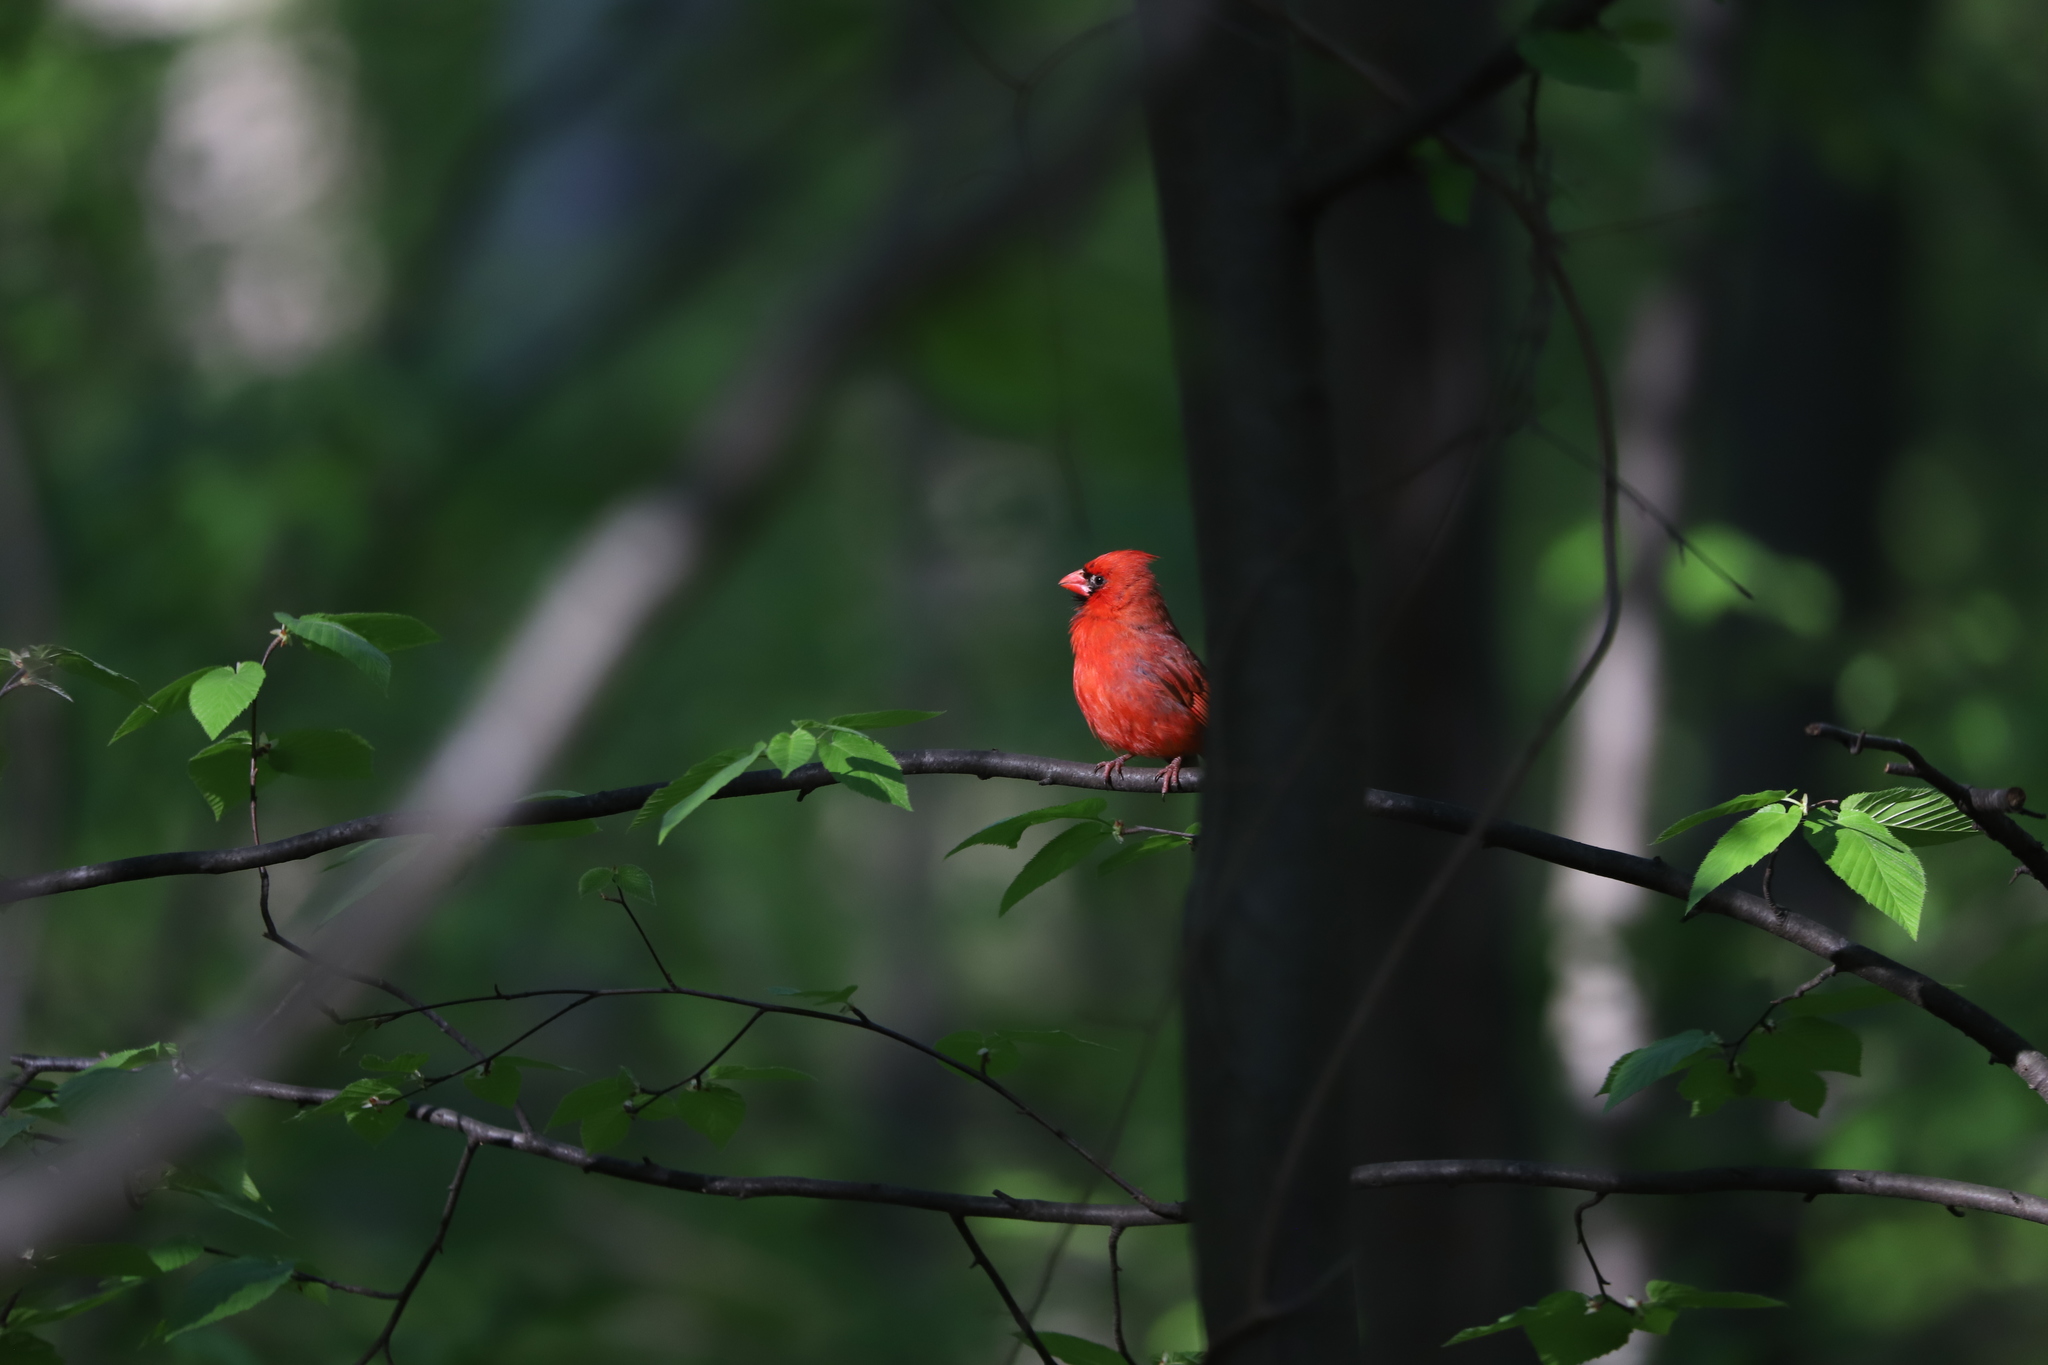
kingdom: Animalia
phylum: Chordata
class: Aves
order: Passeriformes
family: Cardinalidae
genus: Cardinalis
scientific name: Cardinalis cardinalis
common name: Northern cardinal
